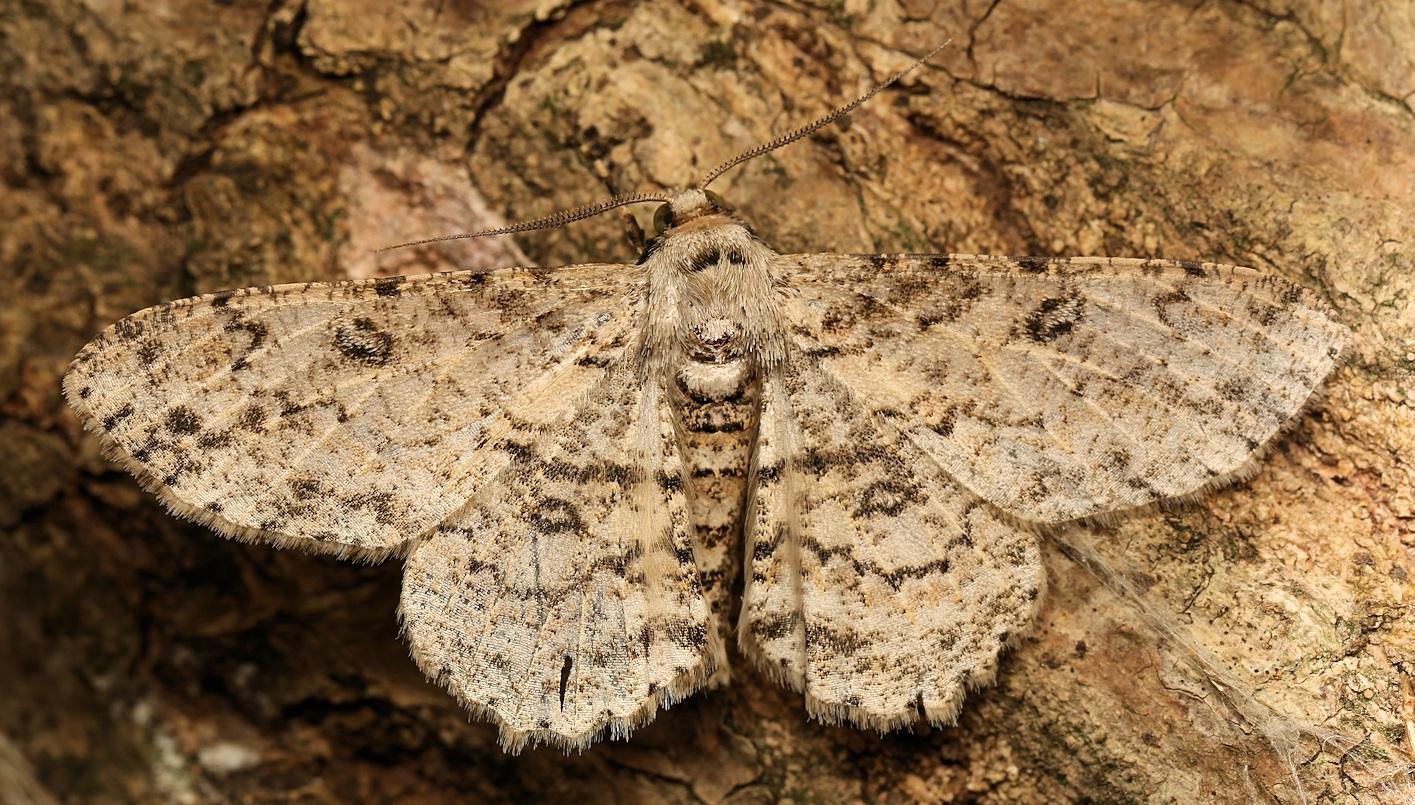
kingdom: Animalia
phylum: Arthropoda
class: Insecta
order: Lepidoptera
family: Geometridae
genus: Ascotis
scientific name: Ascotis reciprocaria
